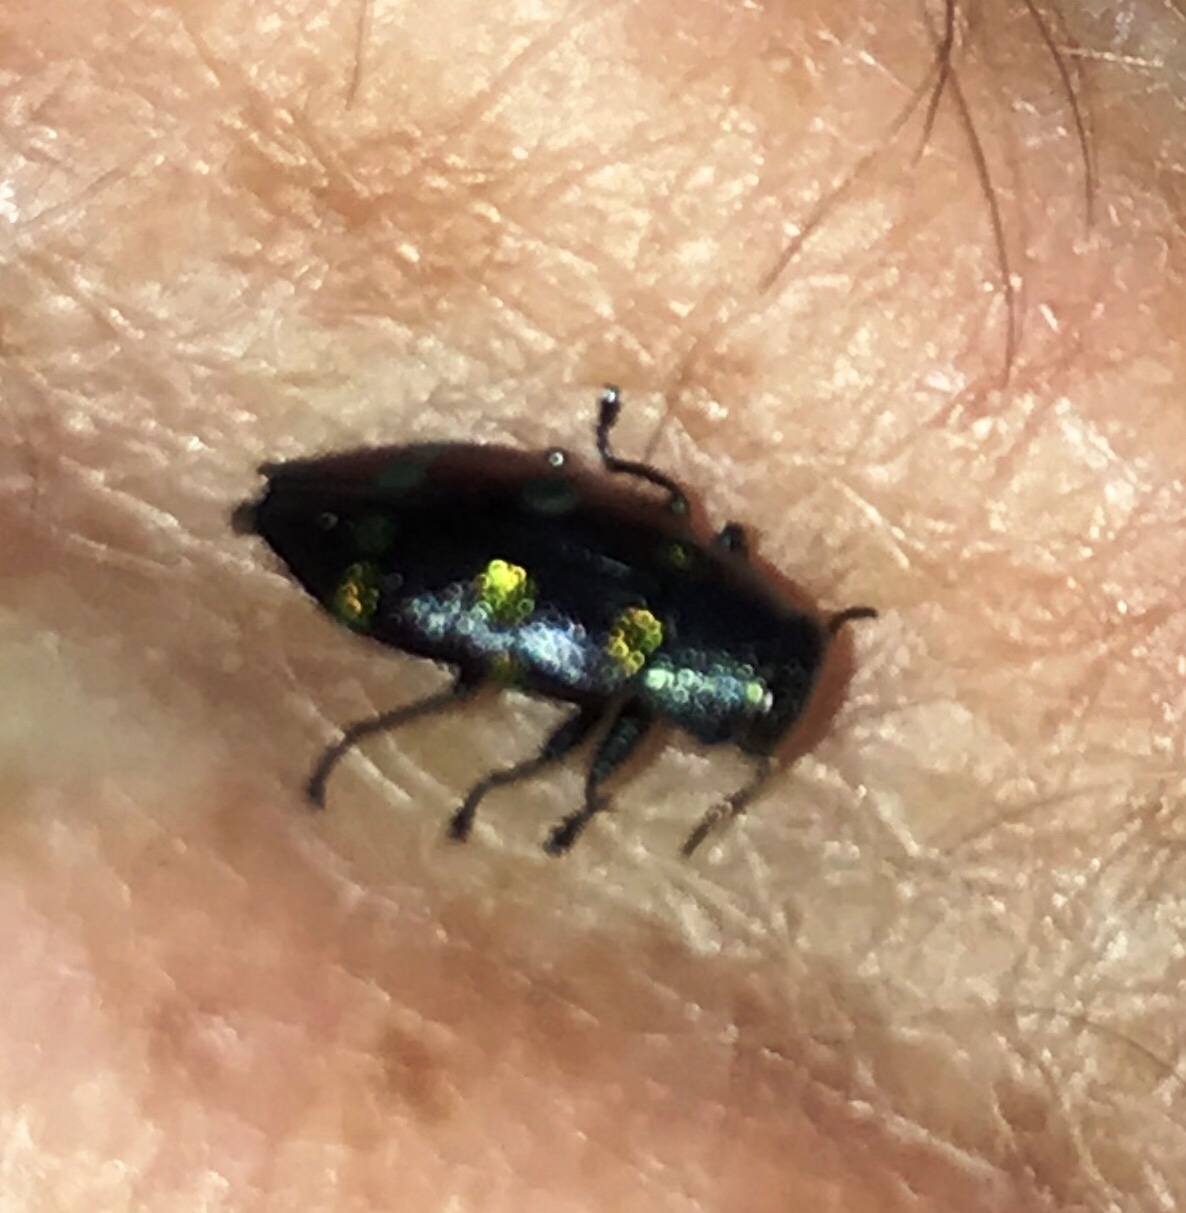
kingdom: Animalia
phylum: Arthropoda
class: Insecta
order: Coleoptera
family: Buprestidae
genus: Chrysobothris
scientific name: Chrysobothris chrysoela
